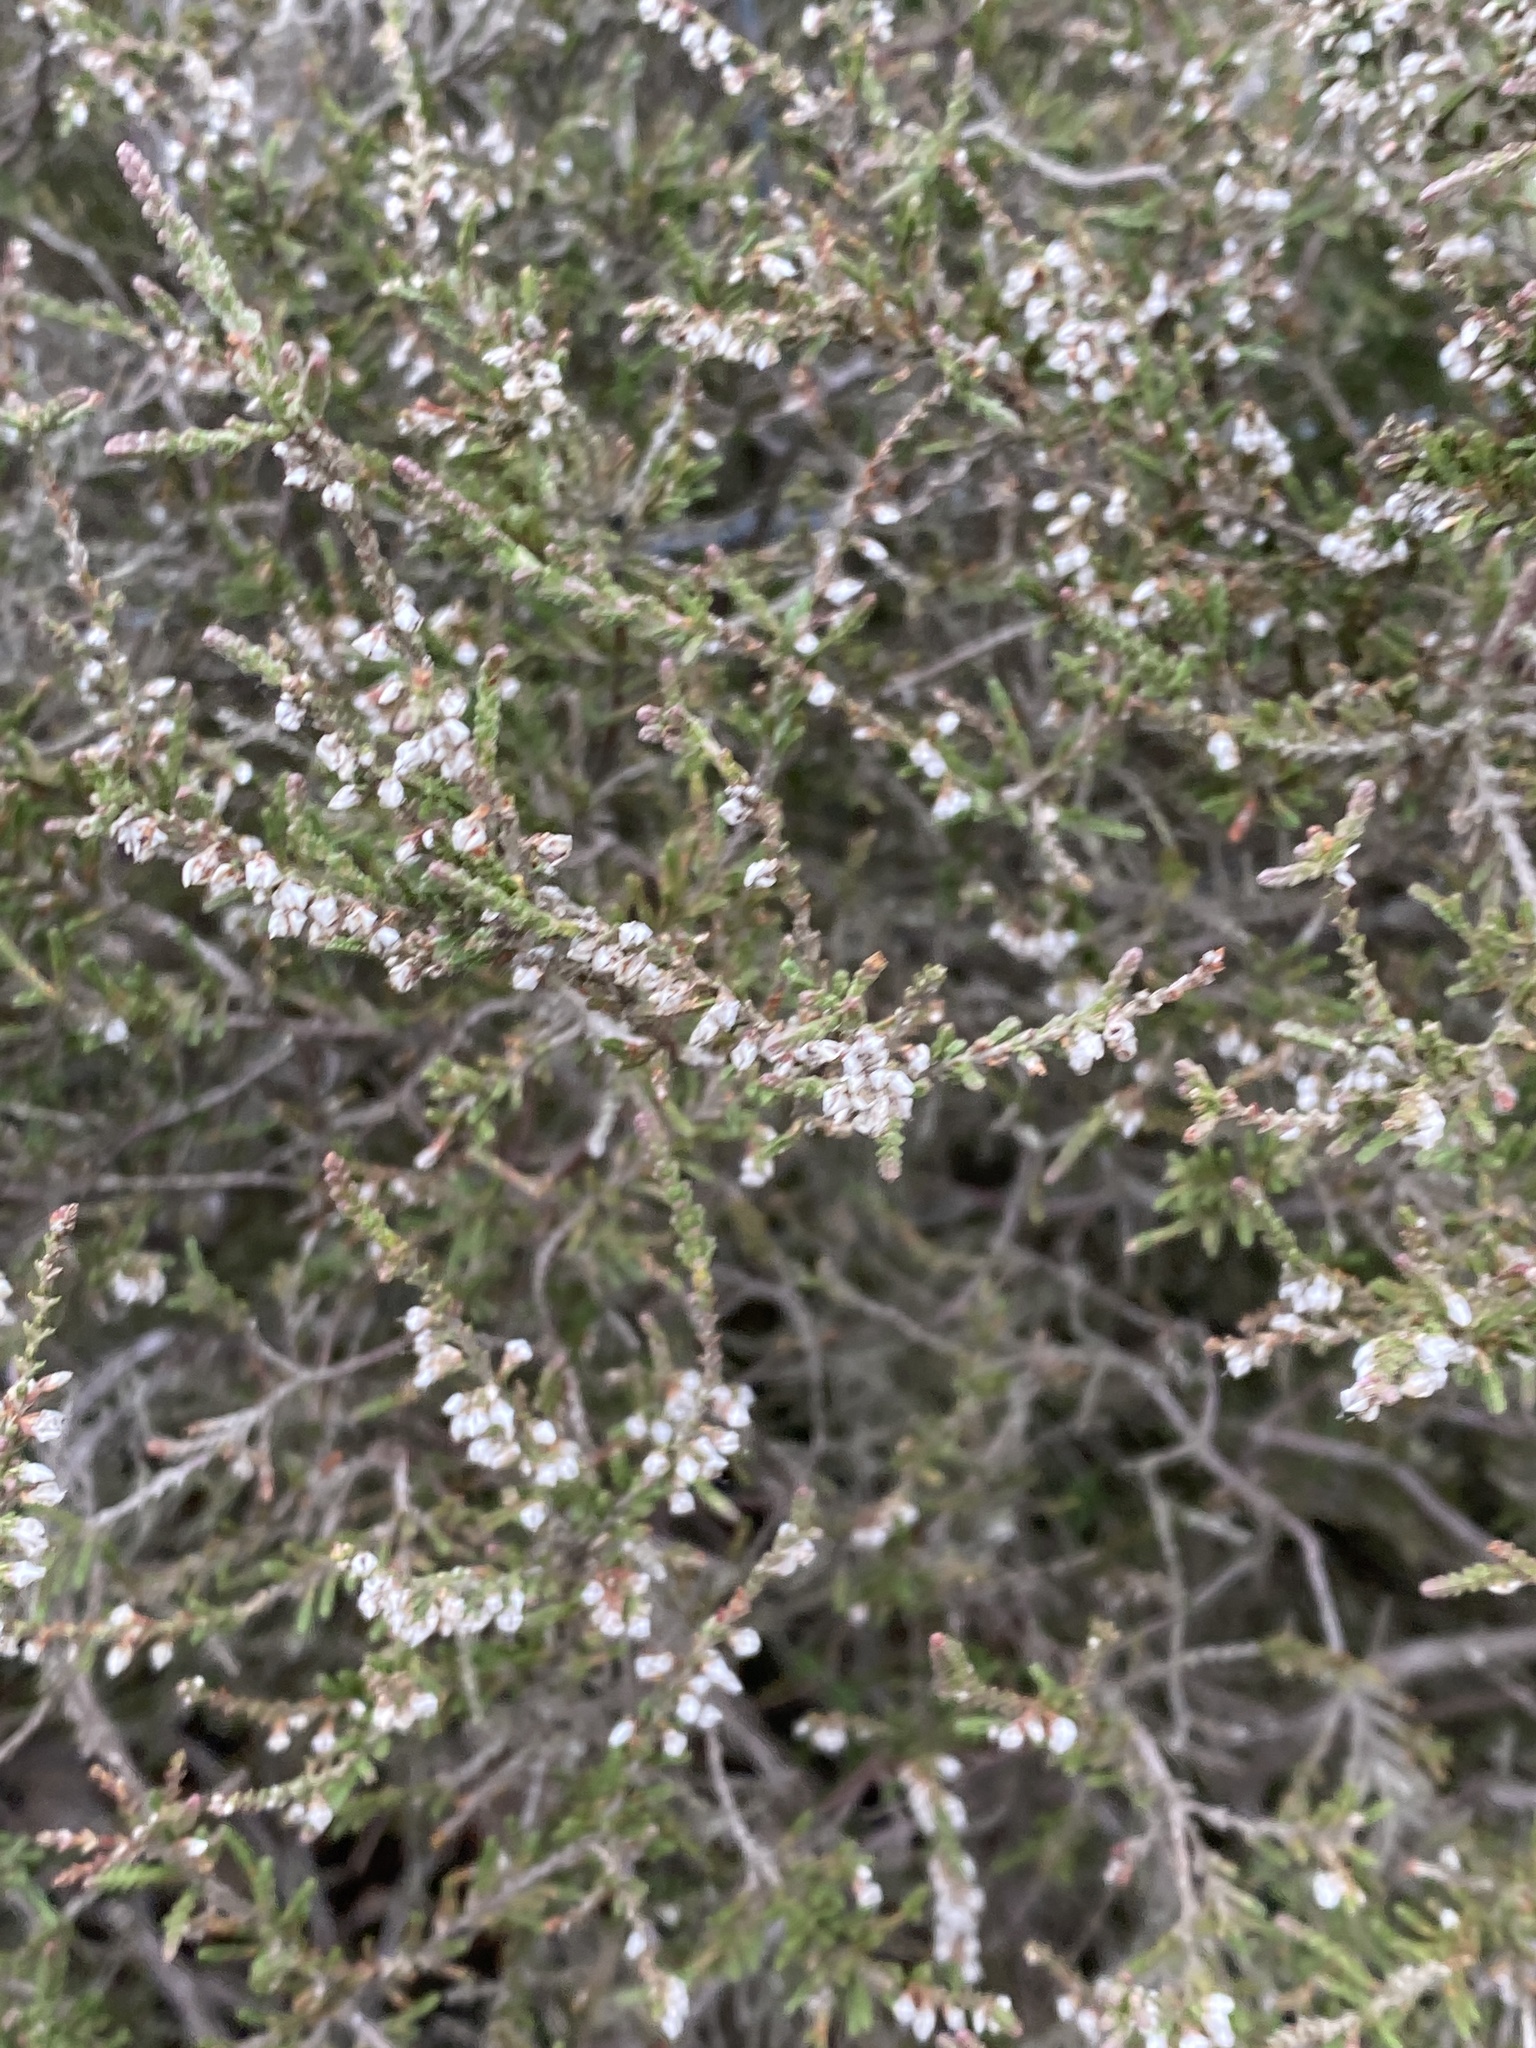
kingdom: Plantae
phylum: Tracheophyta
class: Magnoliopsida
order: Ericales
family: Ericaceae
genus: Calluna
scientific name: Calluna vulgaris
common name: Heather
